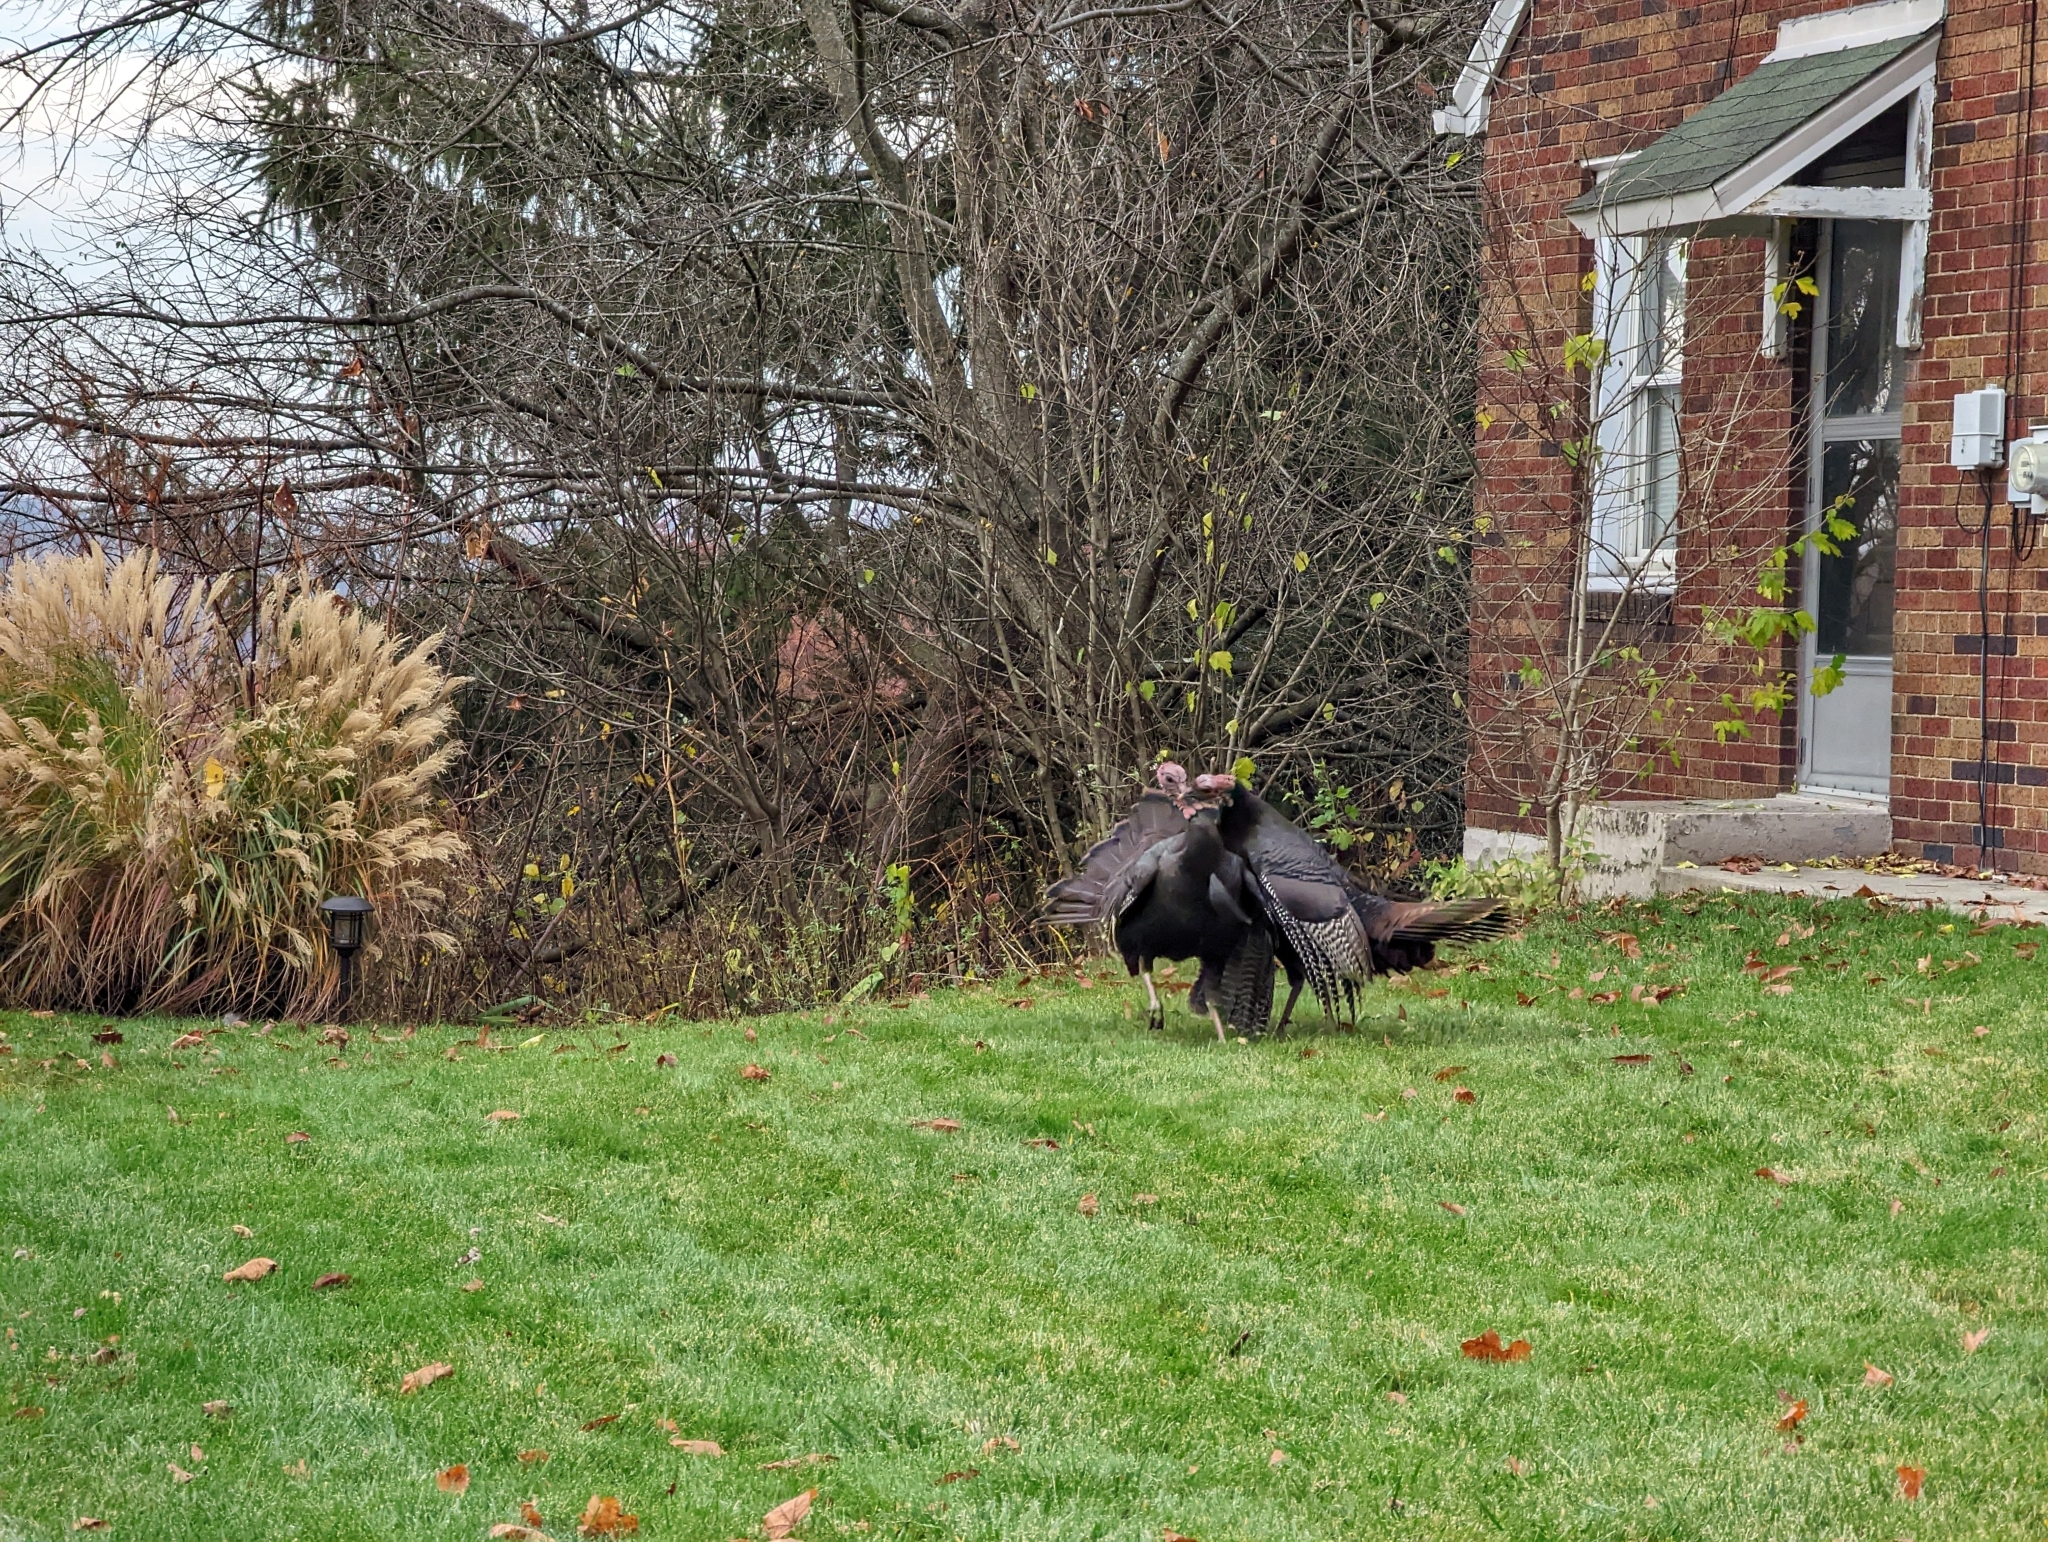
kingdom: Animalia
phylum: Chordata
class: Aves
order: Galliformes
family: Phasianidae
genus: Meleagris
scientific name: Meleagris gallopavo
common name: Wild turkey
